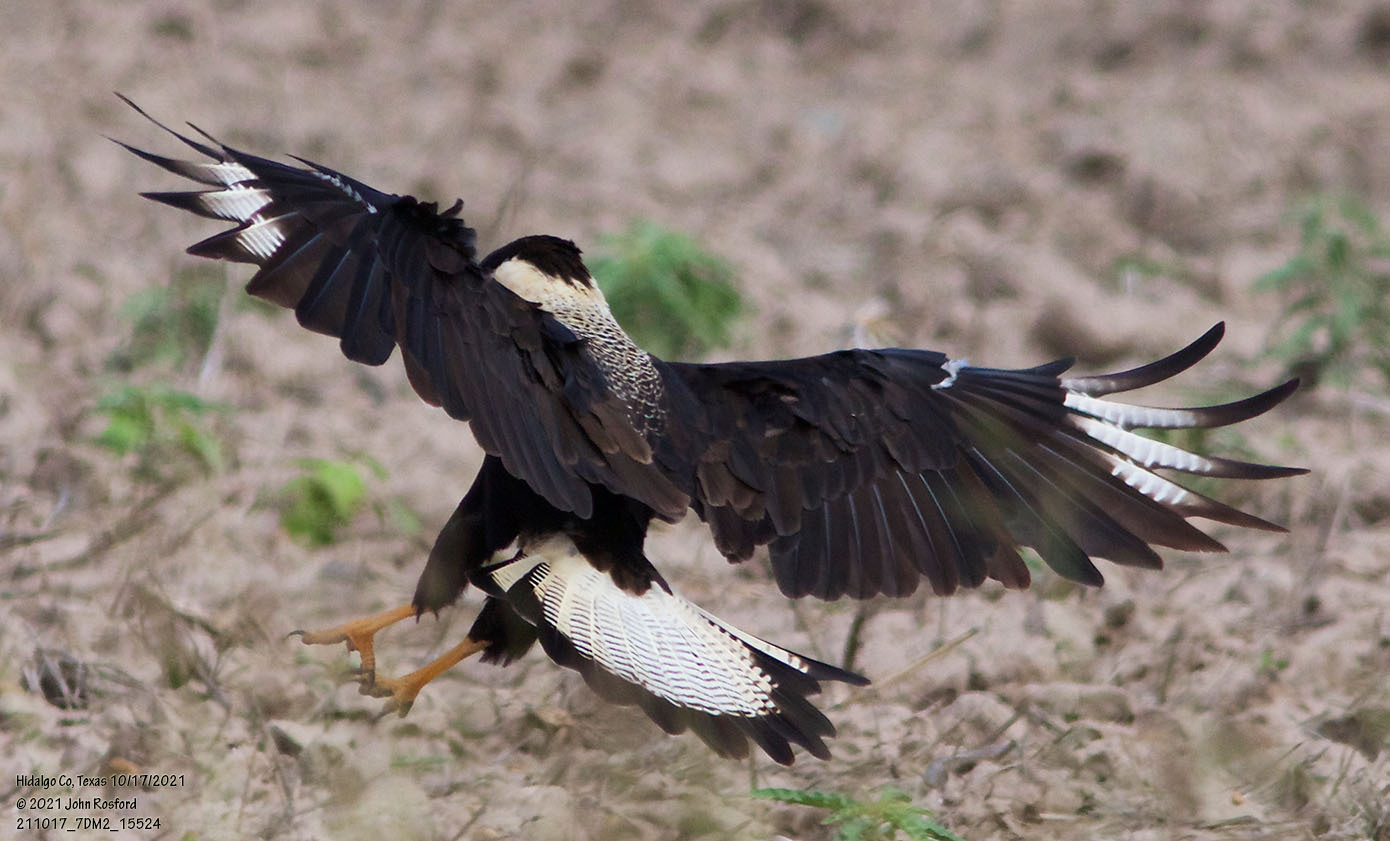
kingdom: Animalia
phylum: Chordata
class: Aves
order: Falconiformes
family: Falconidae
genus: Caracara
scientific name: Caracara plancus
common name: Southern caracara
